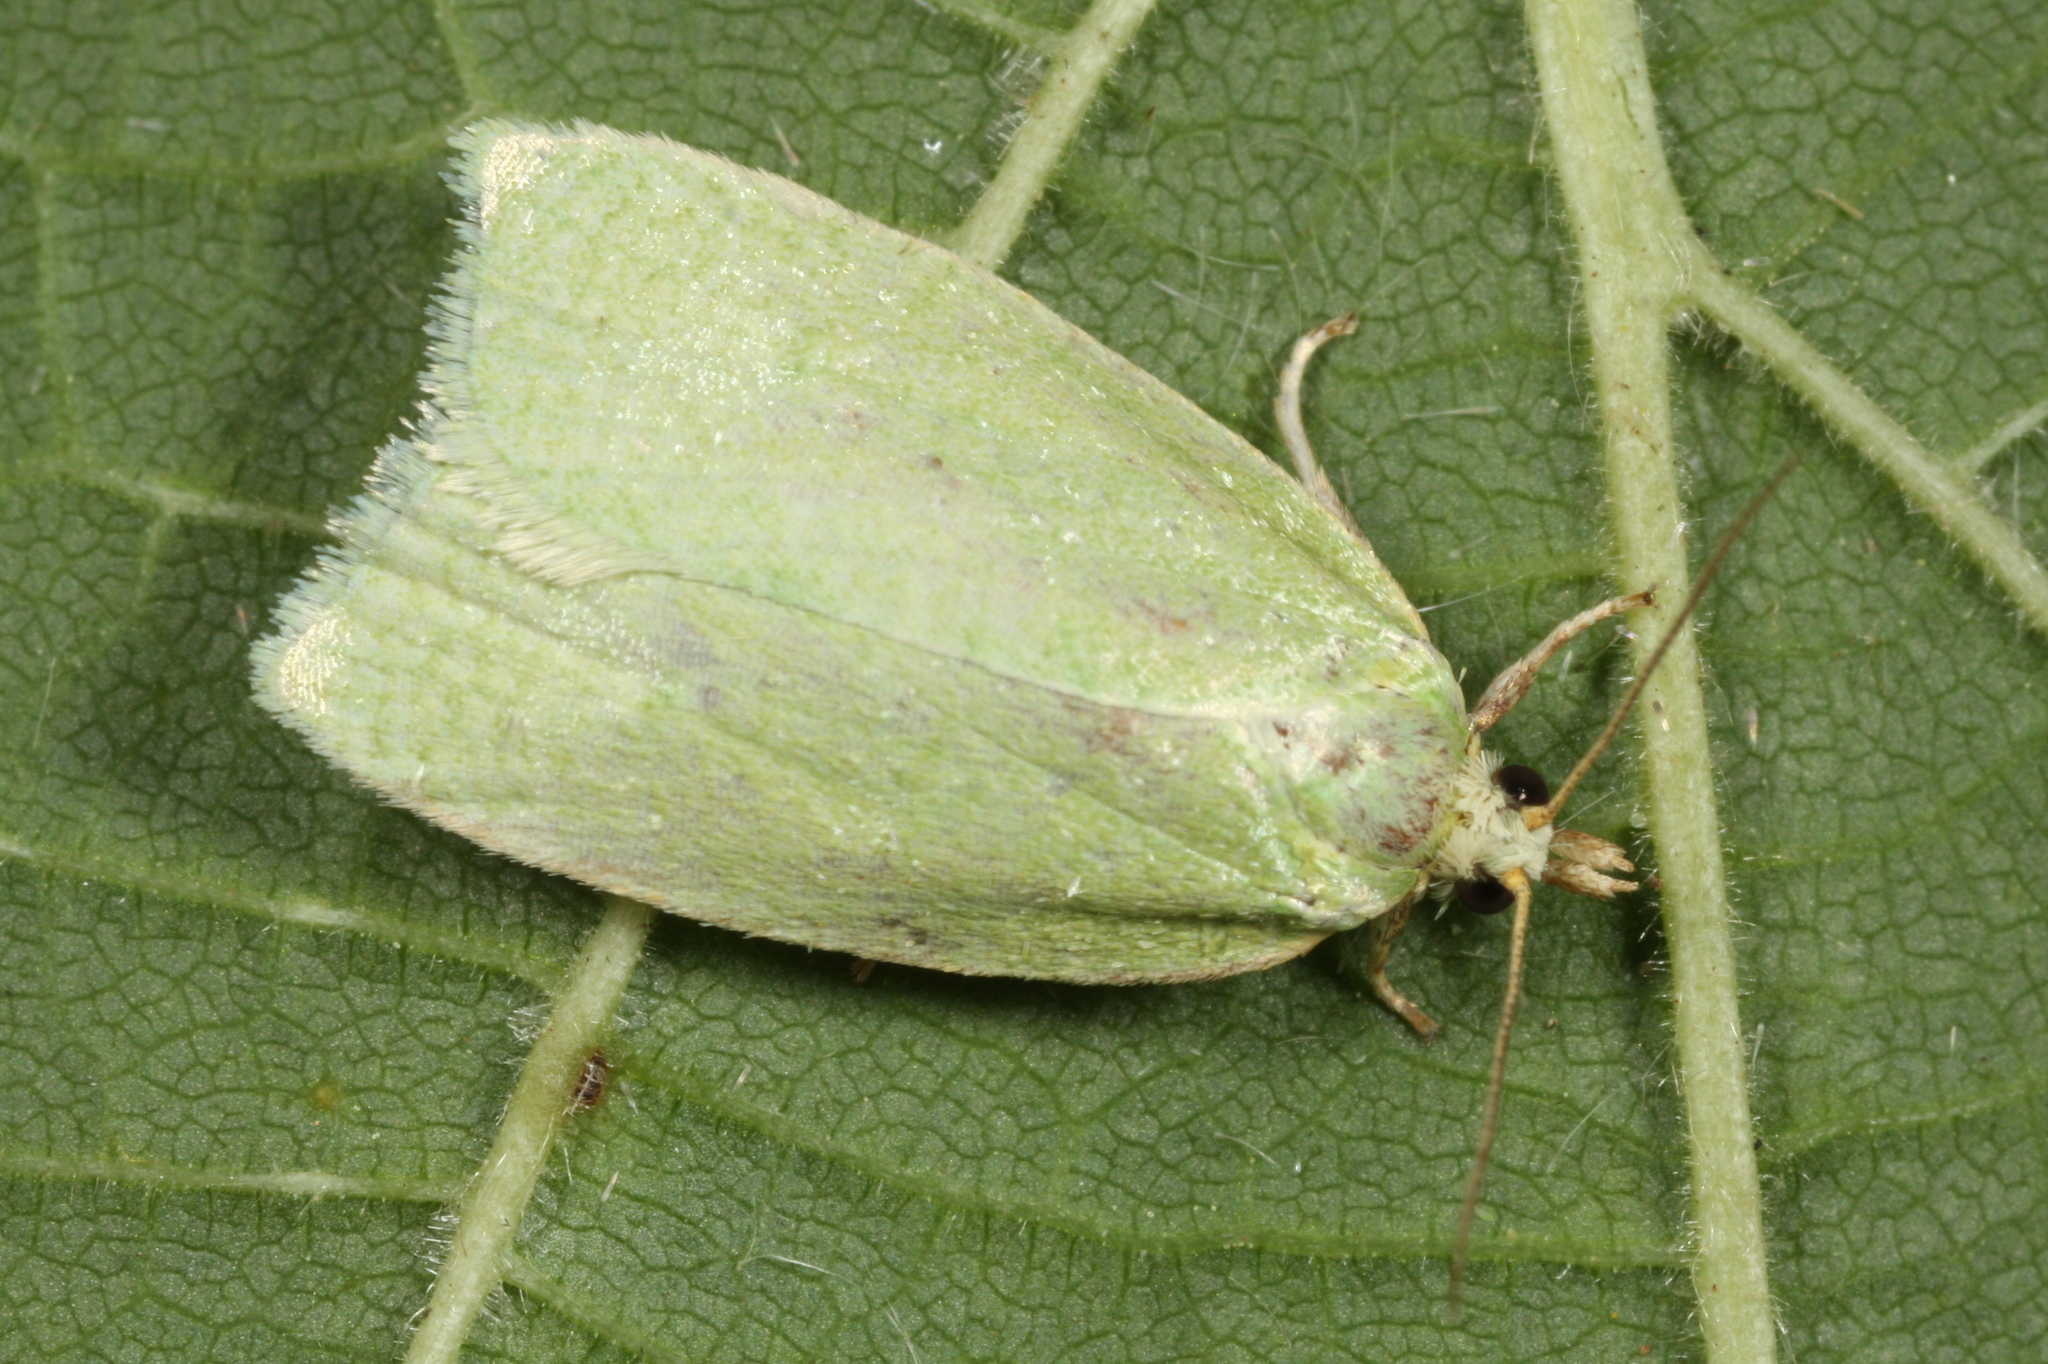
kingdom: Animalia
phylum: Arthropoda
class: Insecta
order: Lepidoptera
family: Tortricidae
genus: Tortrix
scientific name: Tortrix viridana
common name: Green oak tortrix
